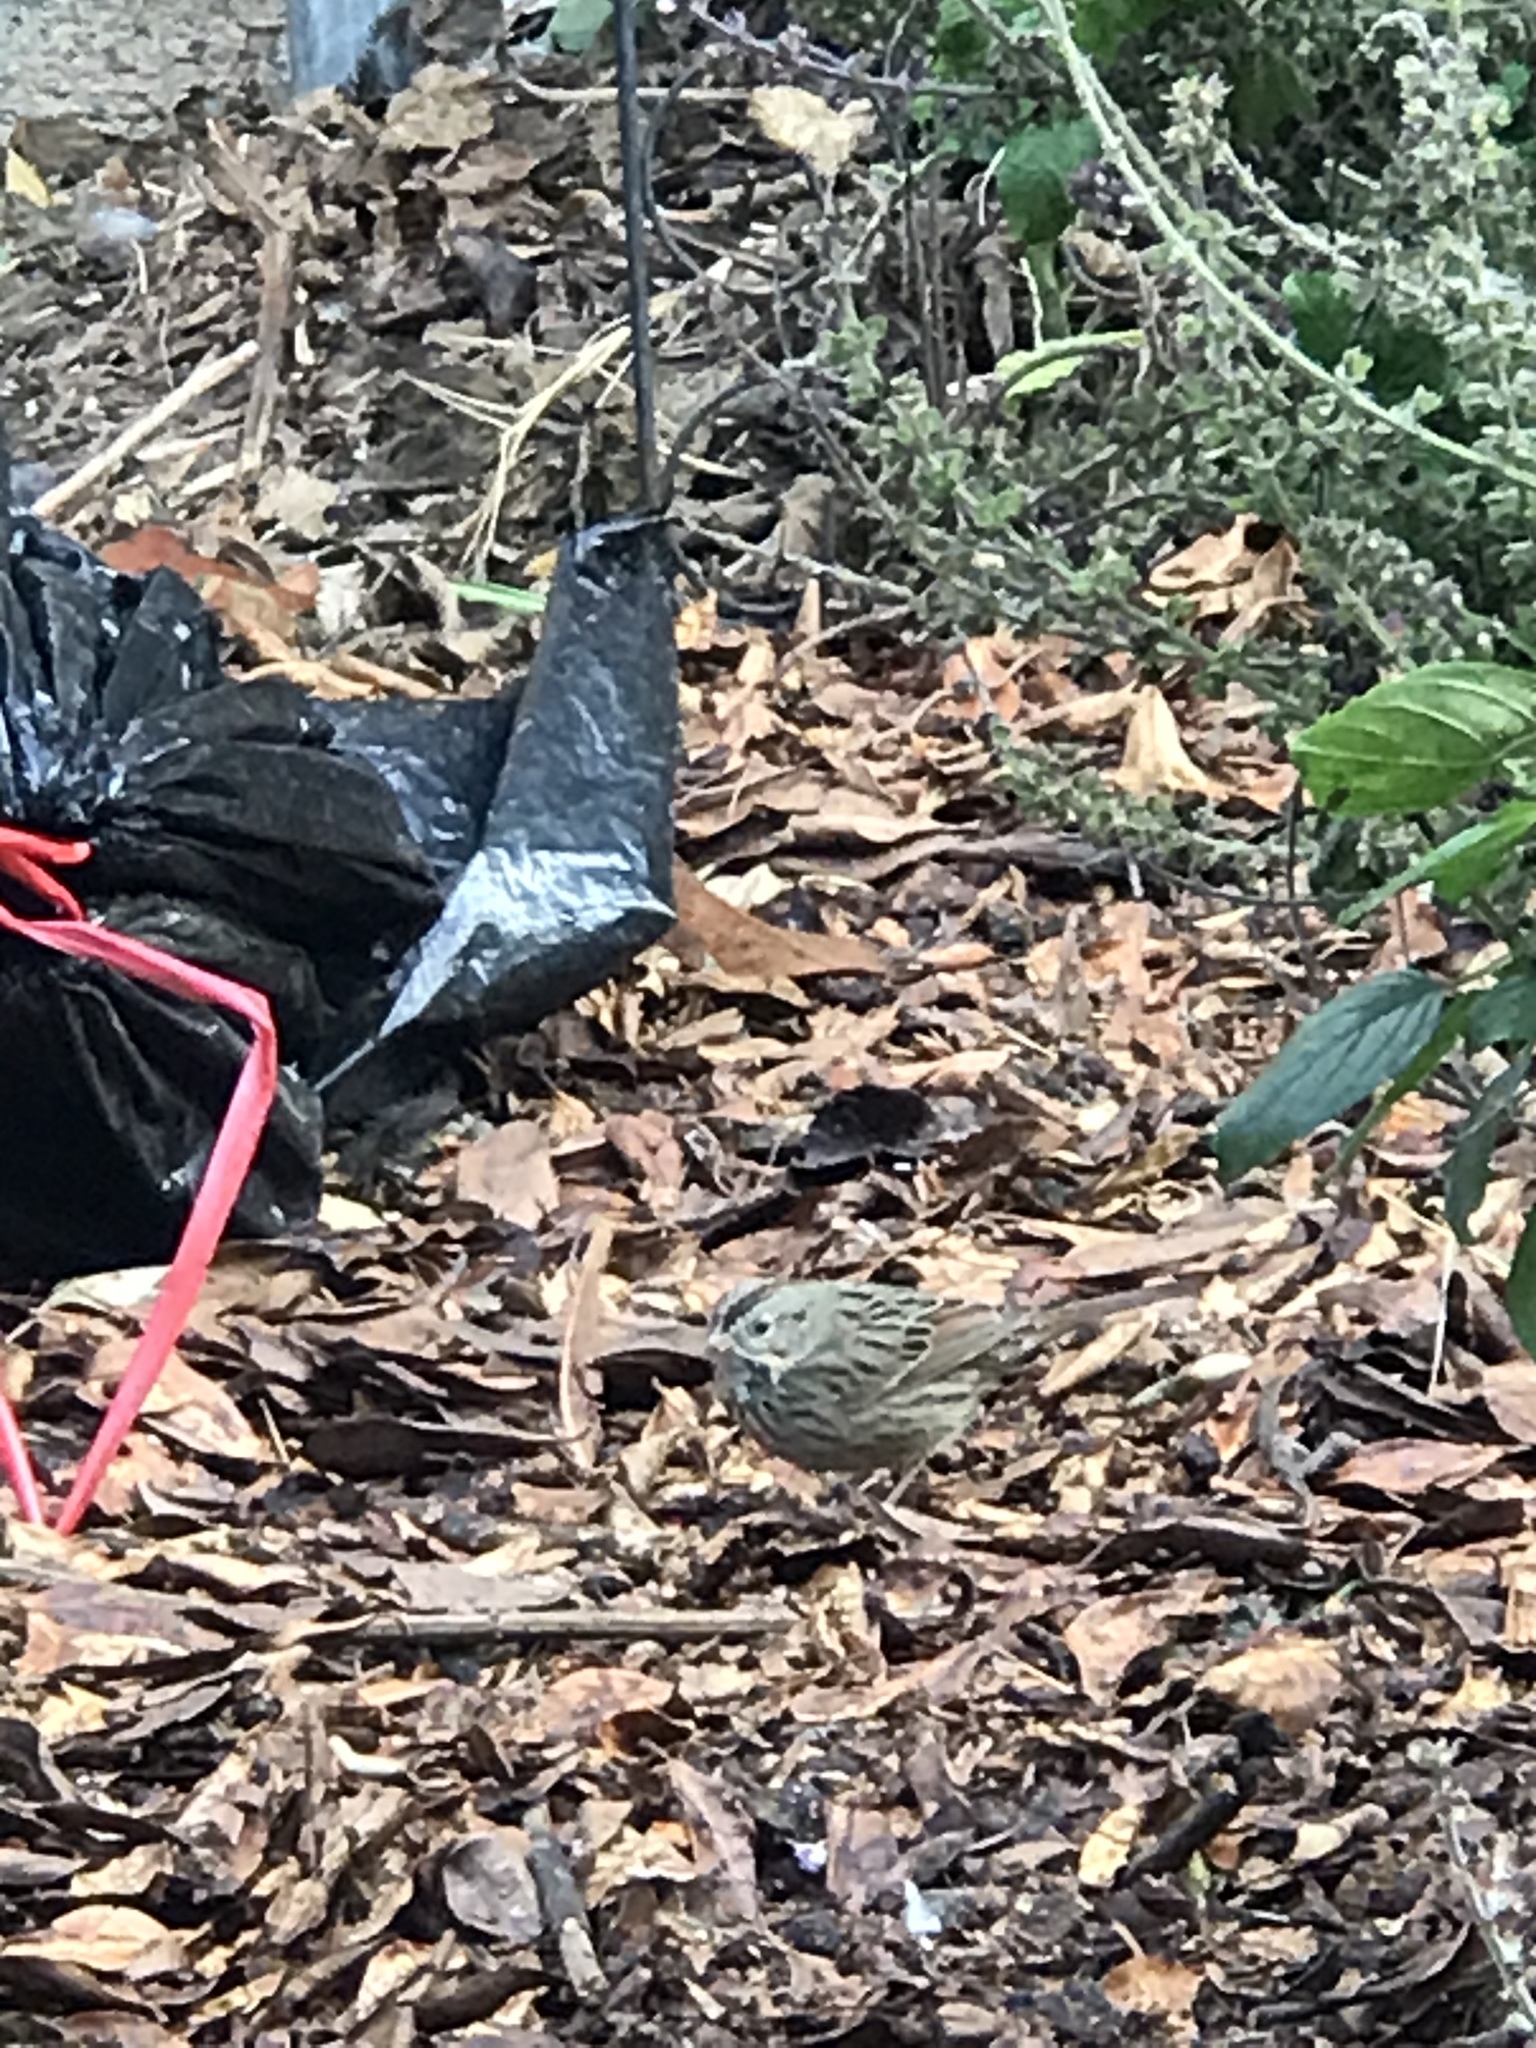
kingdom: Animalia
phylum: Chordata
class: Aves
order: Passeriformes
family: Passerellidae
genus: Melospiza
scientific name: Melospiza lincolnii
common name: Lincoln's sparrow
